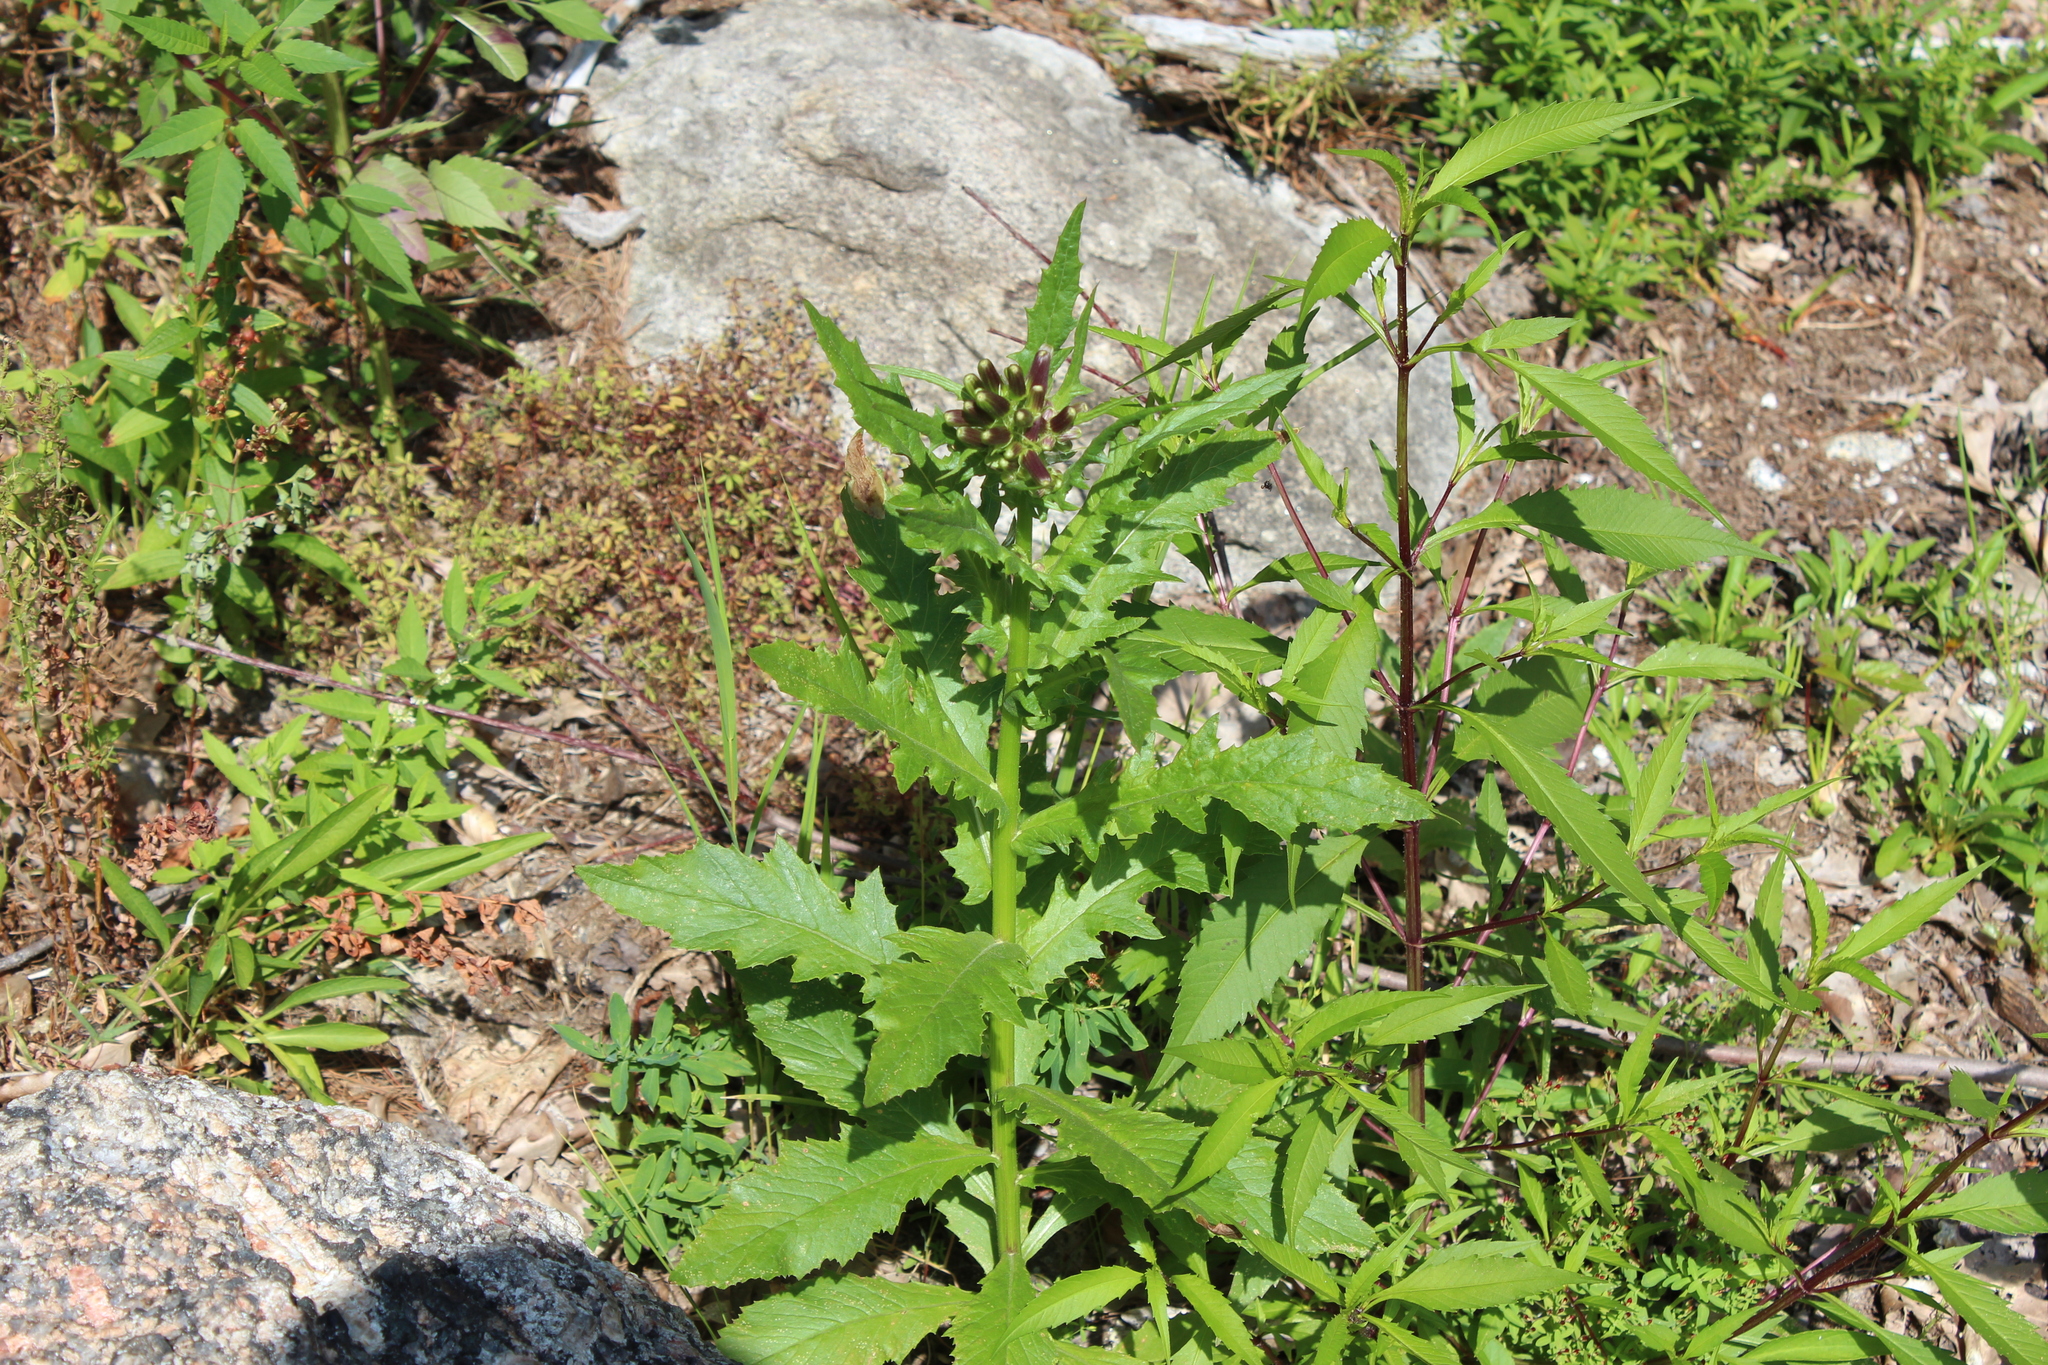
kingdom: Plantae
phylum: Tracheophyta
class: Magnoliopsida
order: Asterales
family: Asteraceae
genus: Erechtites
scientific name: Erechtites hieraciifolius
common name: American burnweed
